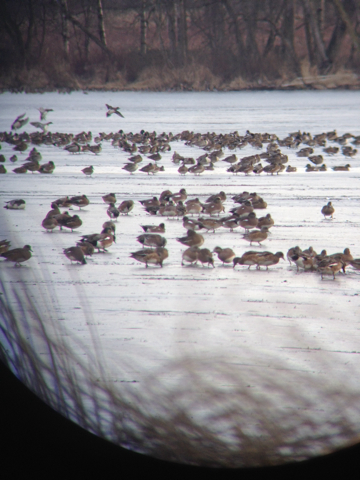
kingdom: Animalia
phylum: Chordata
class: Aves
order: Anseriformes
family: Anatidae
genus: Mareca
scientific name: Mareca americana
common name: American wigeon
